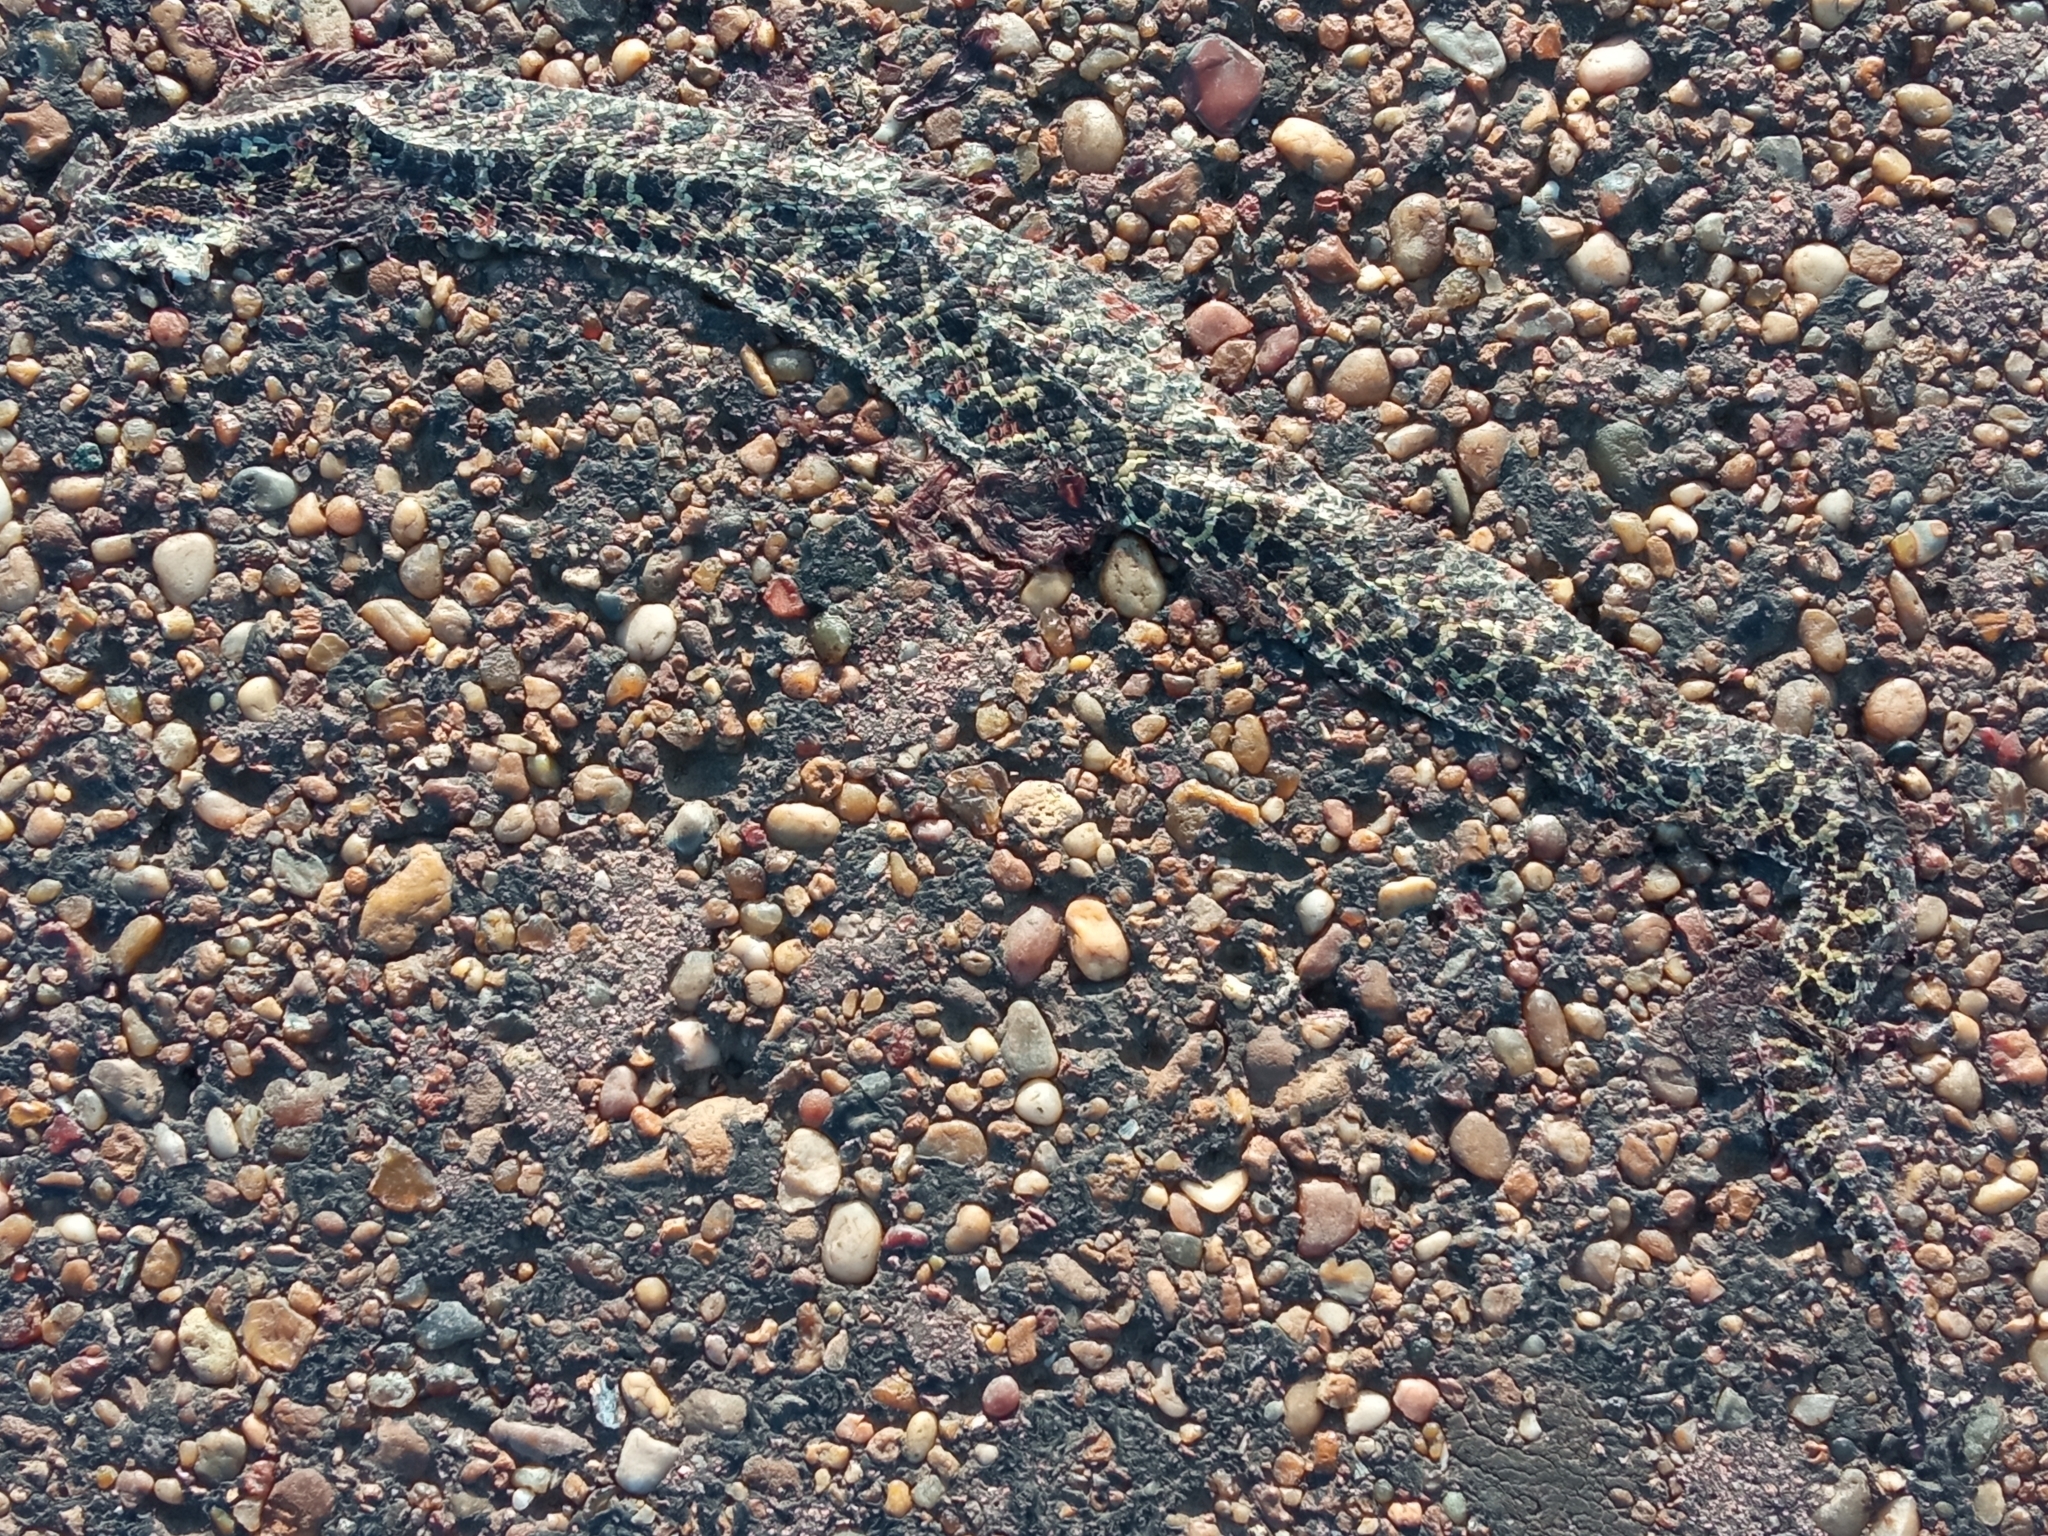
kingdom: Animalia
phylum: Chordata
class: Squamata
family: Colubridae
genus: Xenodon
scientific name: Xenodon dorbignyi
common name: South american hognose snake
